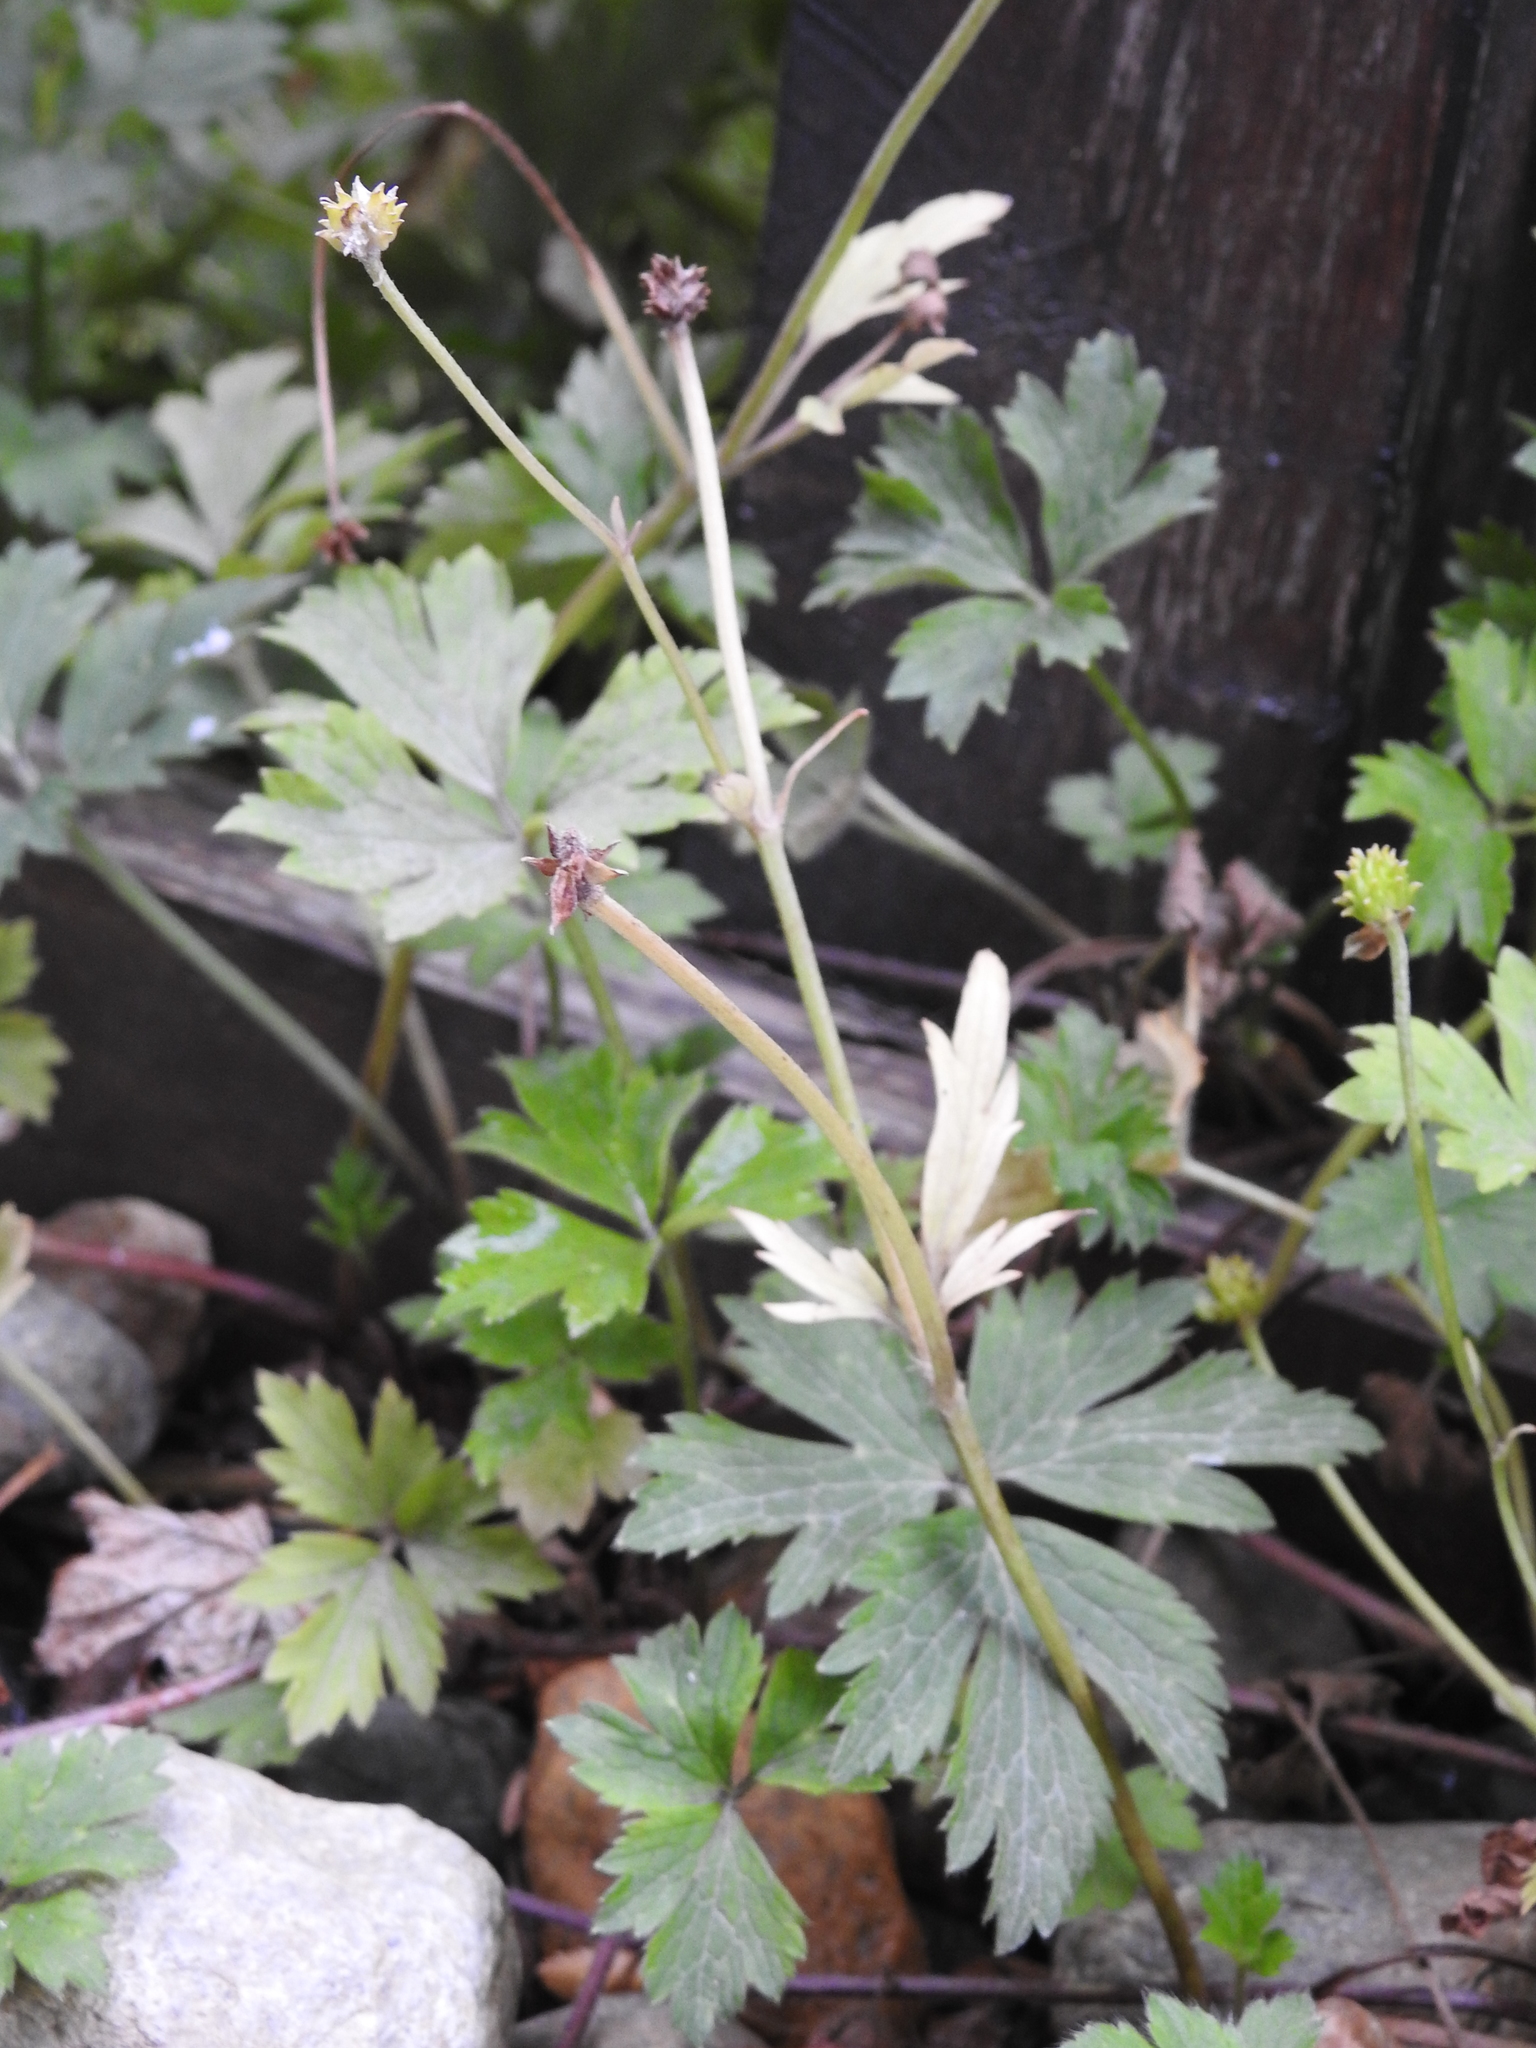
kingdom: Plantae
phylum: Tracheophyta
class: Magnoliopsida
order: Ranunculales
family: Ranunculaceae
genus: Ranunculus
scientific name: Ranunculus repens
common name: Creeping buttercup
